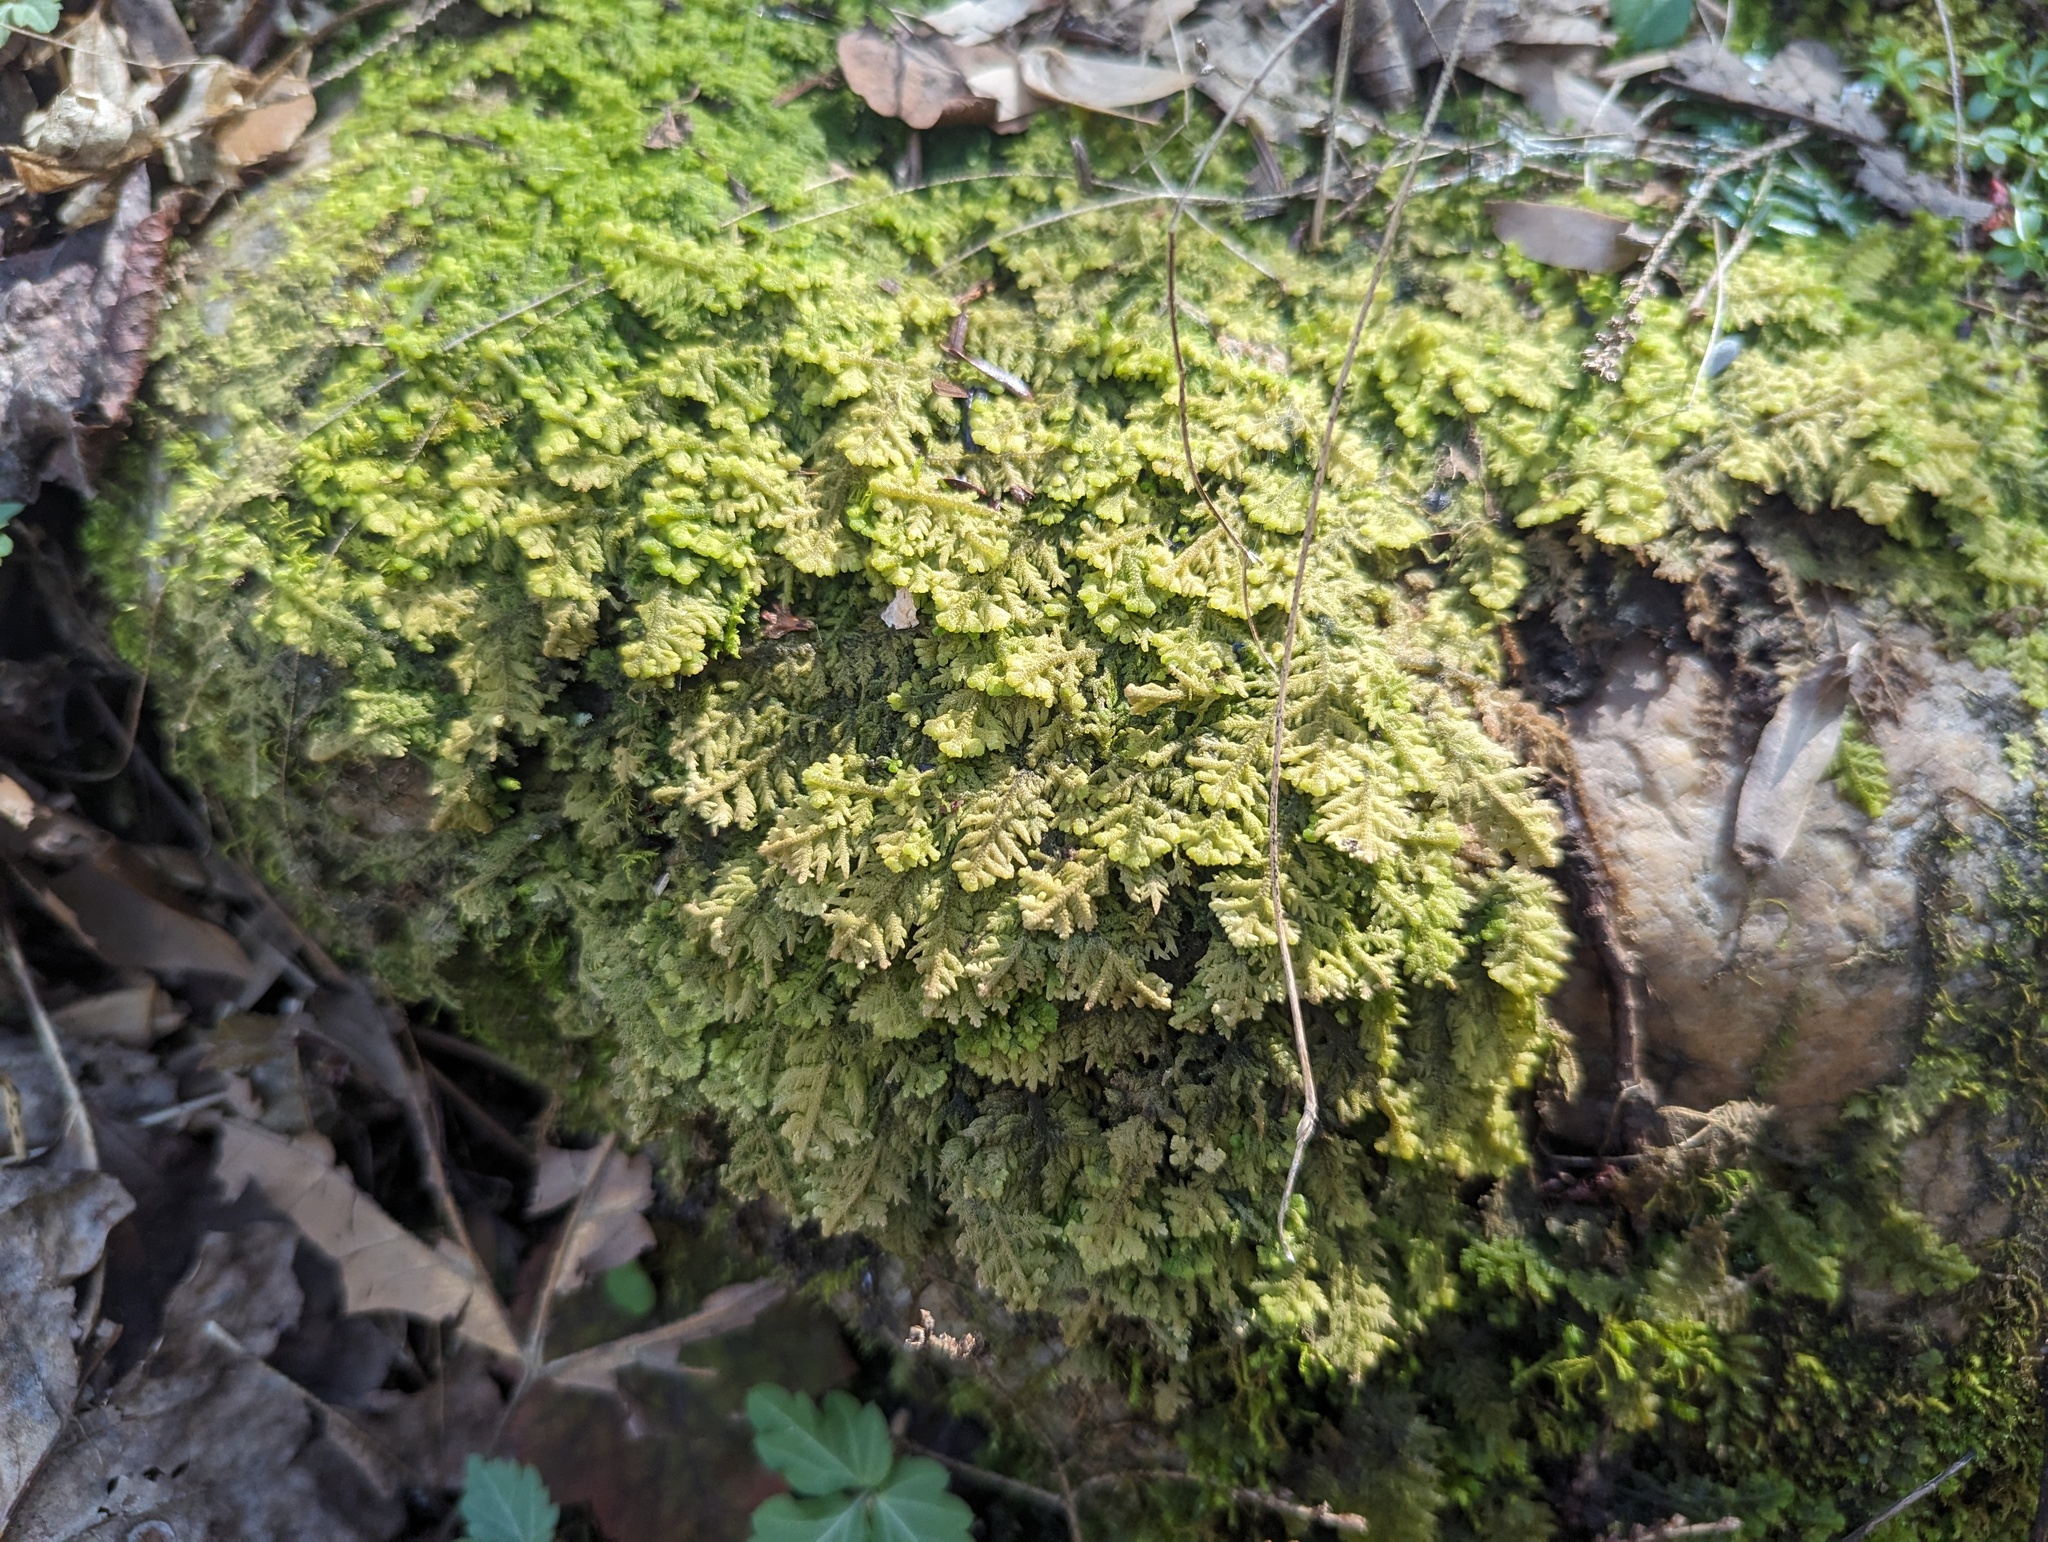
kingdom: Plantae
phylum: Marchantiophyta
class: Jungermanniopsida
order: Jungermanniales
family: Trichocoleaceae
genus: Trichocolea
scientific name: Trichocolea tomentella
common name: Woolly liverwort
